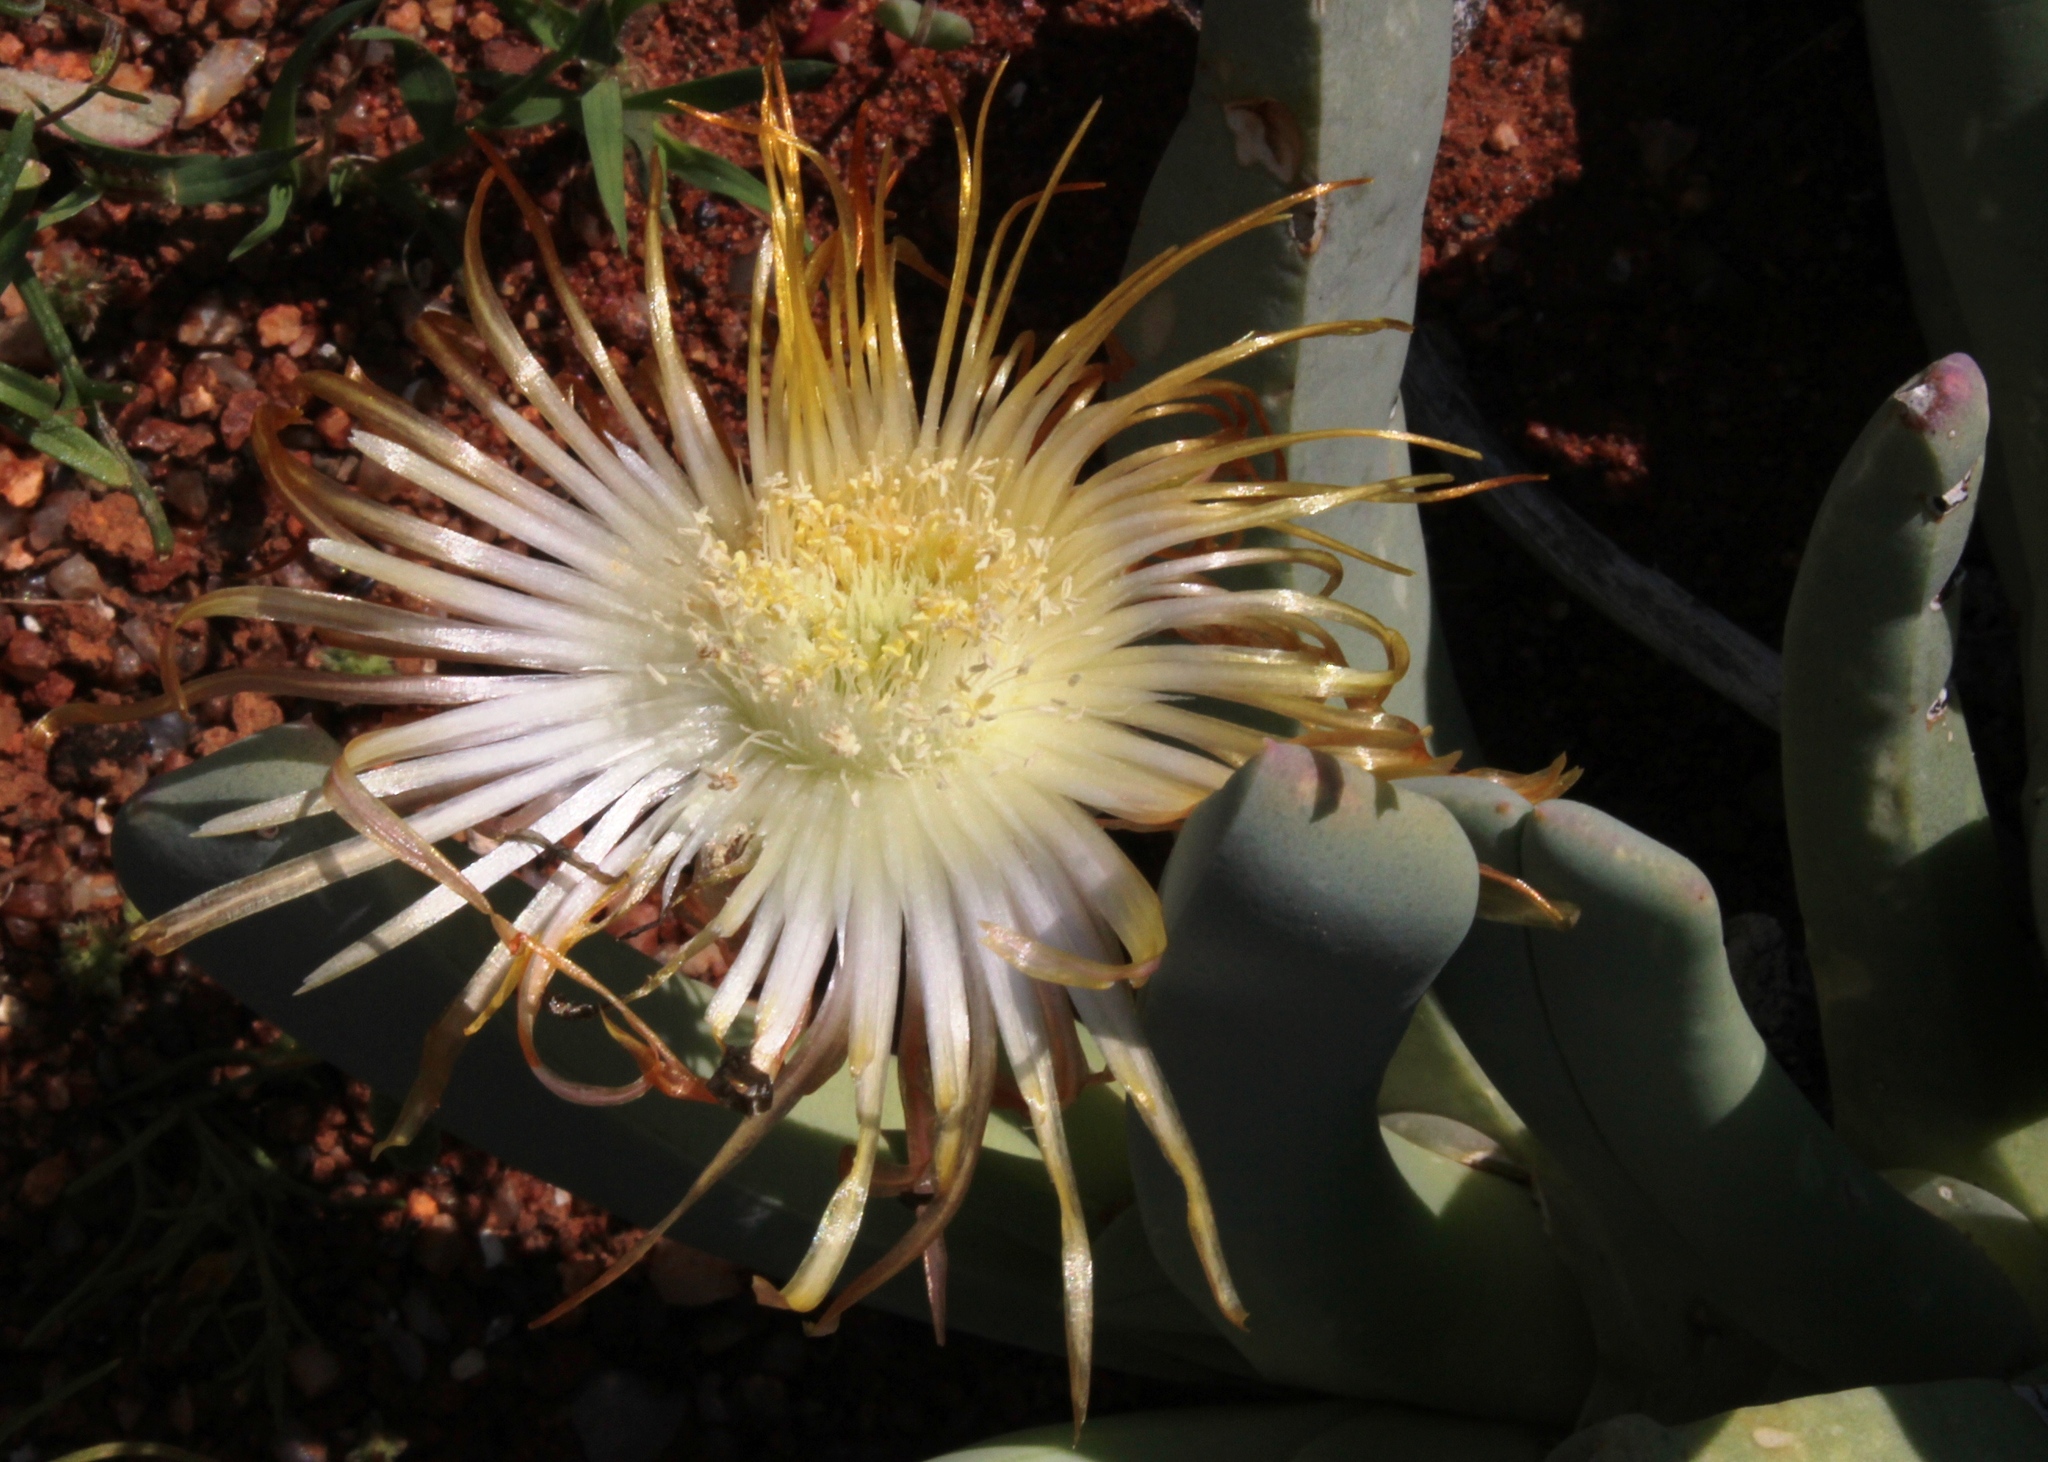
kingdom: Plantae
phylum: Tracheophyta
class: Magnoliopsida
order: Caryophyllales
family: Aizoaceae
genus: Cheiridopsis
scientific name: Cheiridopsis denticulata
